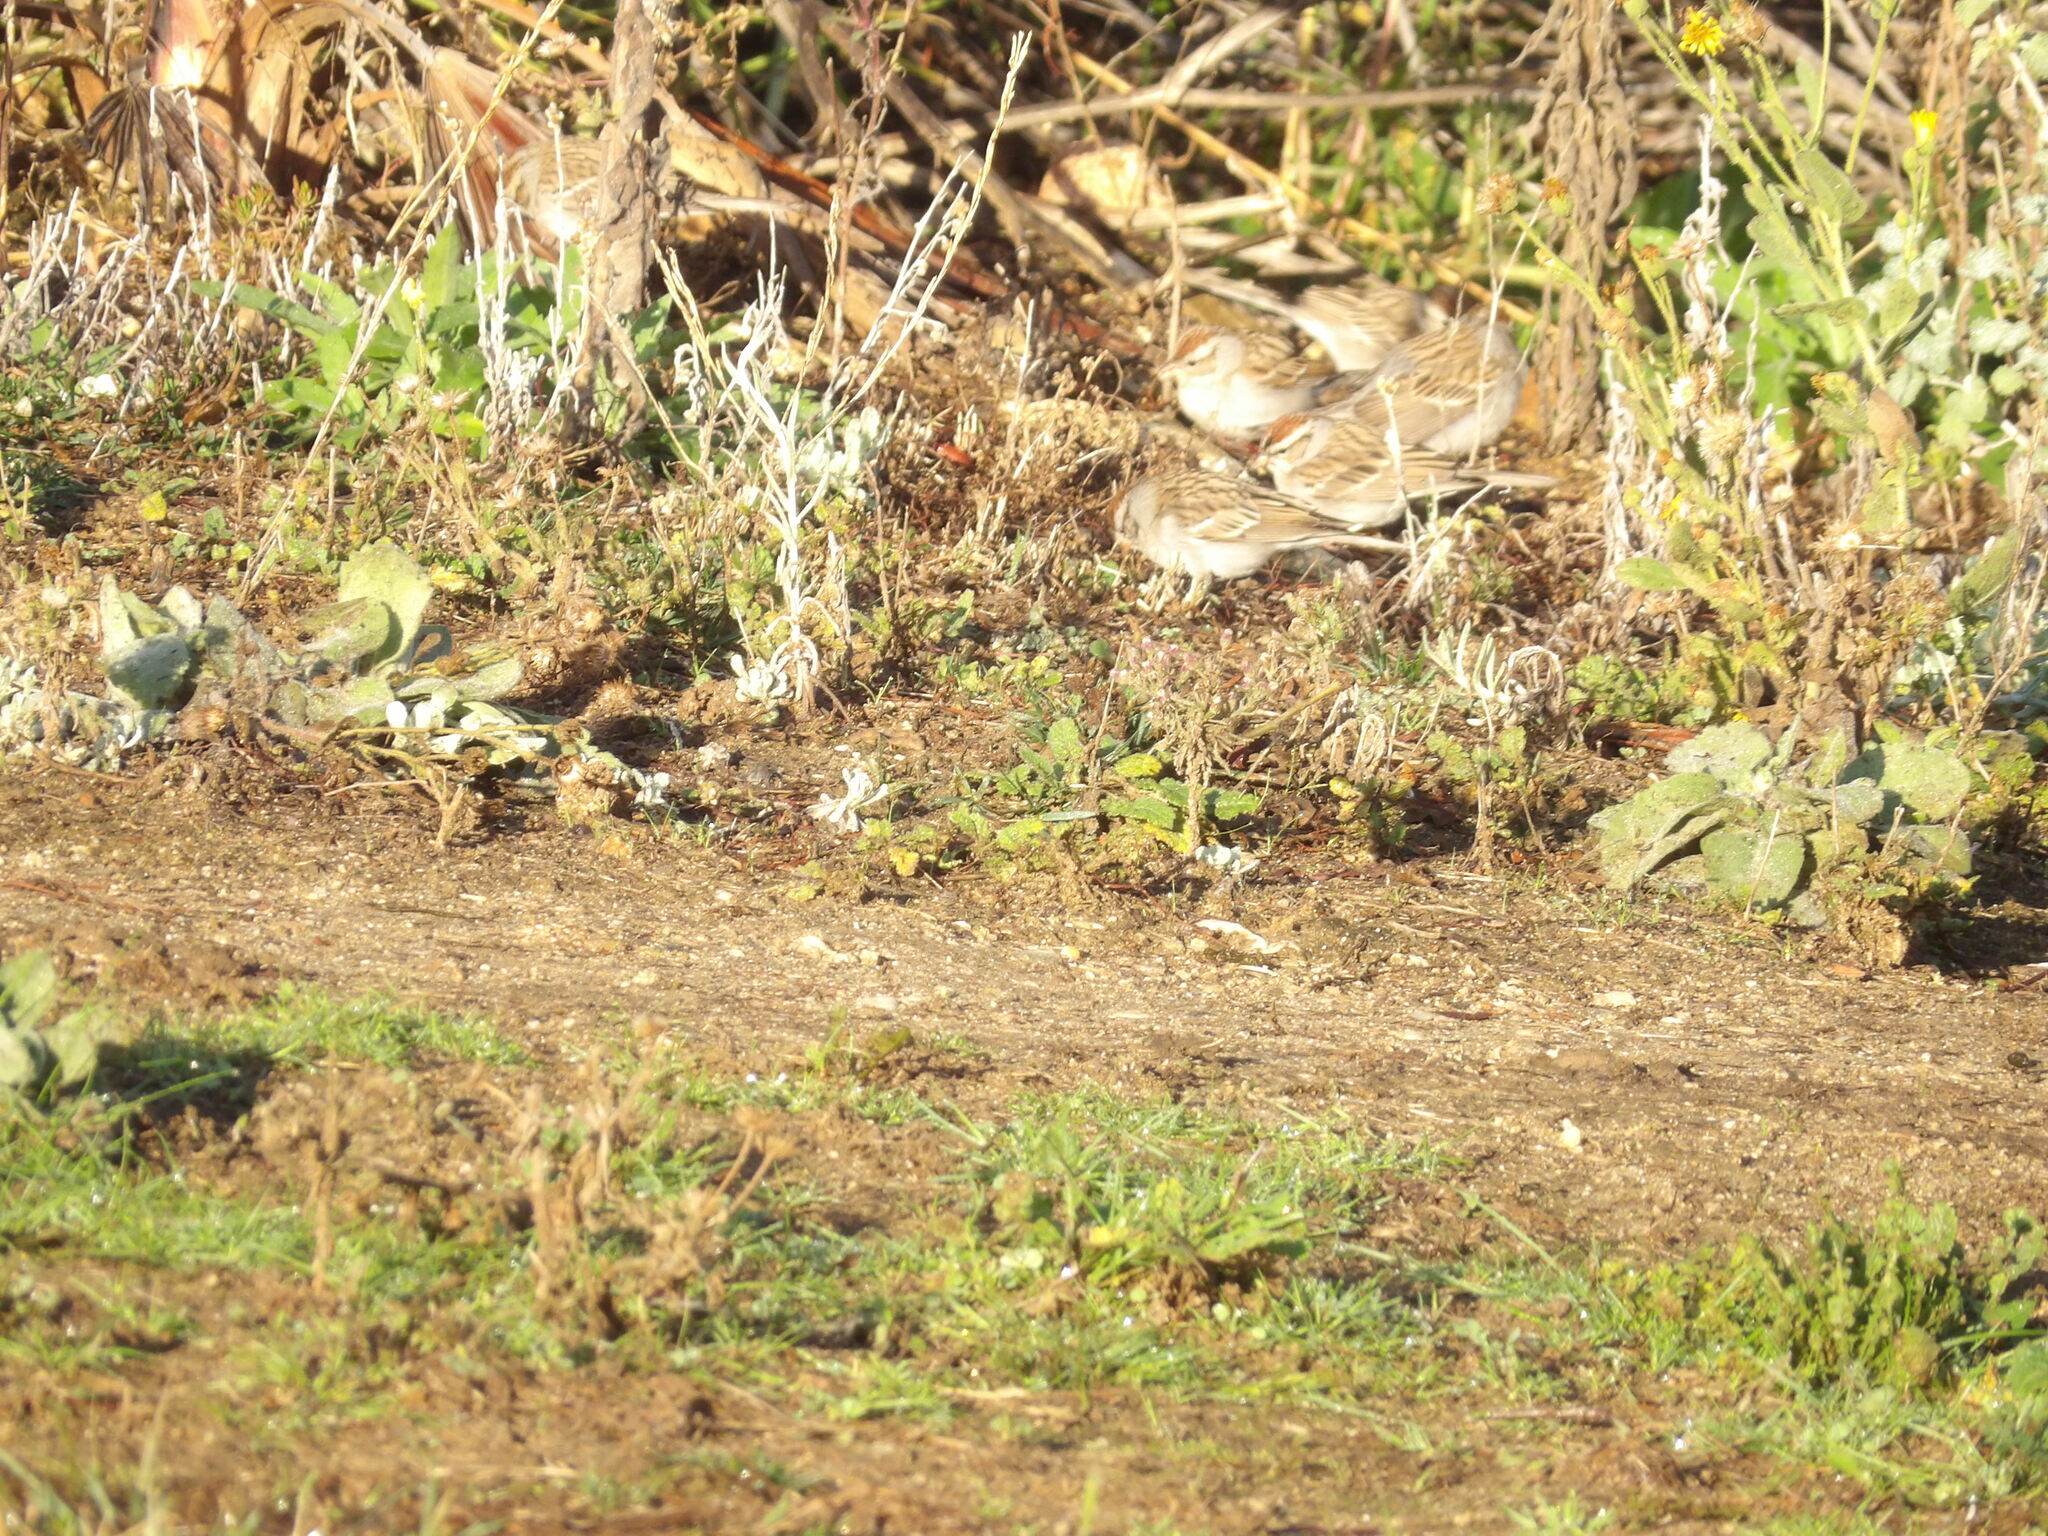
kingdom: Animalia
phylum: Chordata
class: Aves
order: Passeriformes
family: Passerellidae
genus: Spizella
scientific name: Spizella passerina
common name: Chipping sparrow
